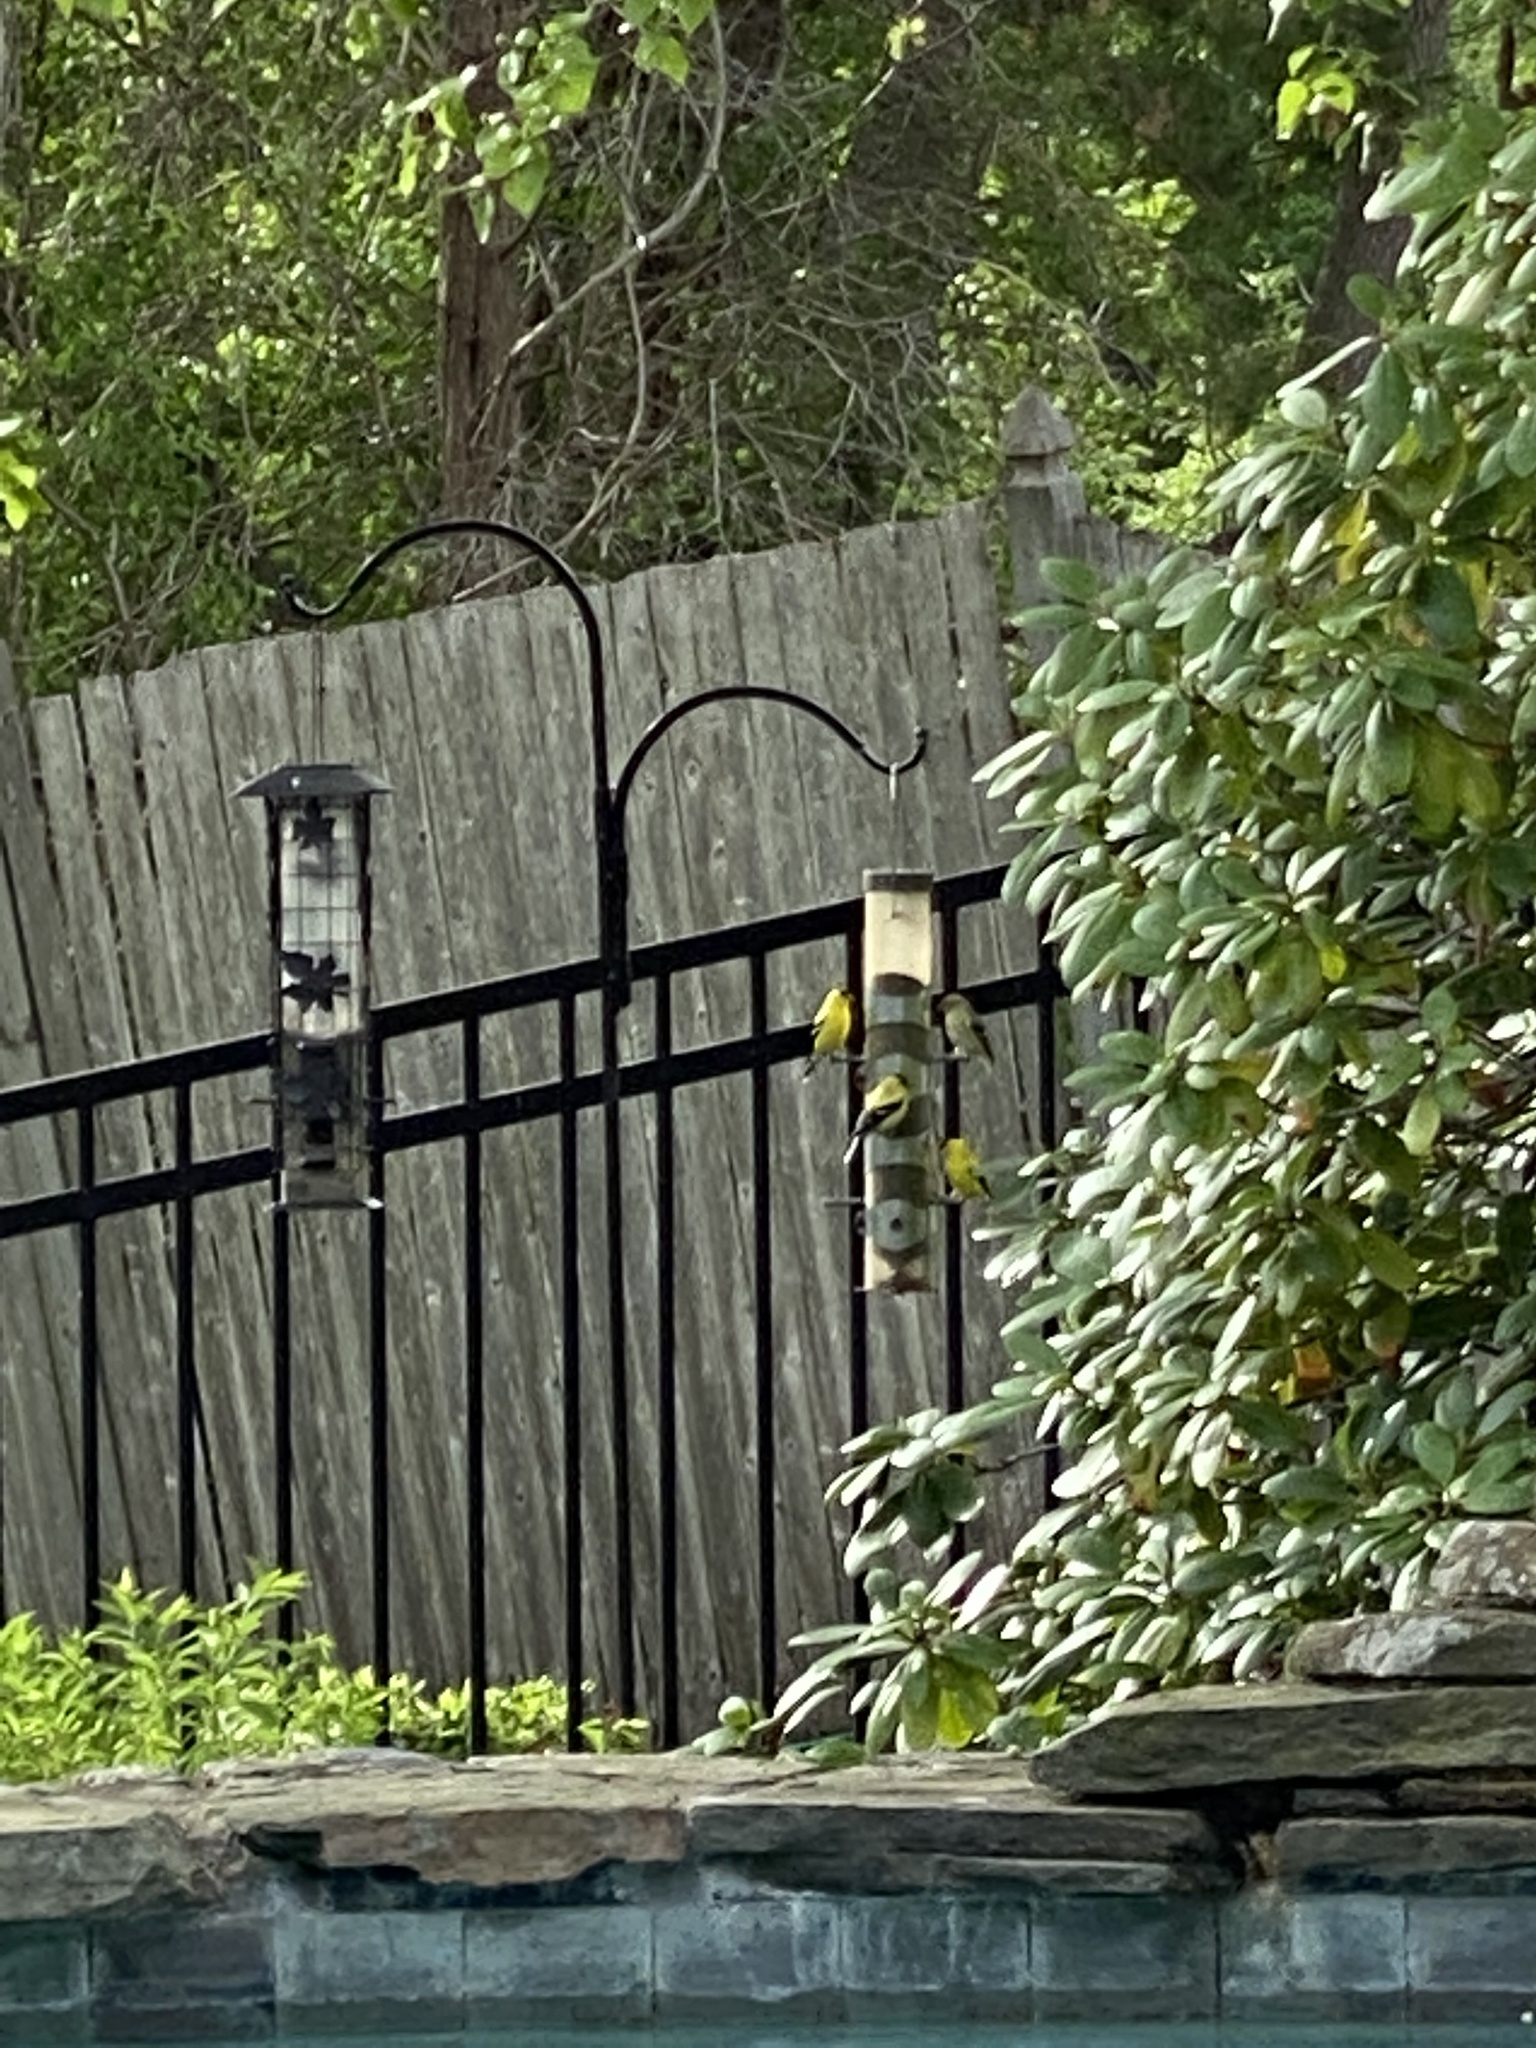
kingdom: Animalia
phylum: Chordata
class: Aves
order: Passeriformes
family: Fringillidae
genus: Spinus
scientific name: Spinus tristis
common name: American goldfinch
